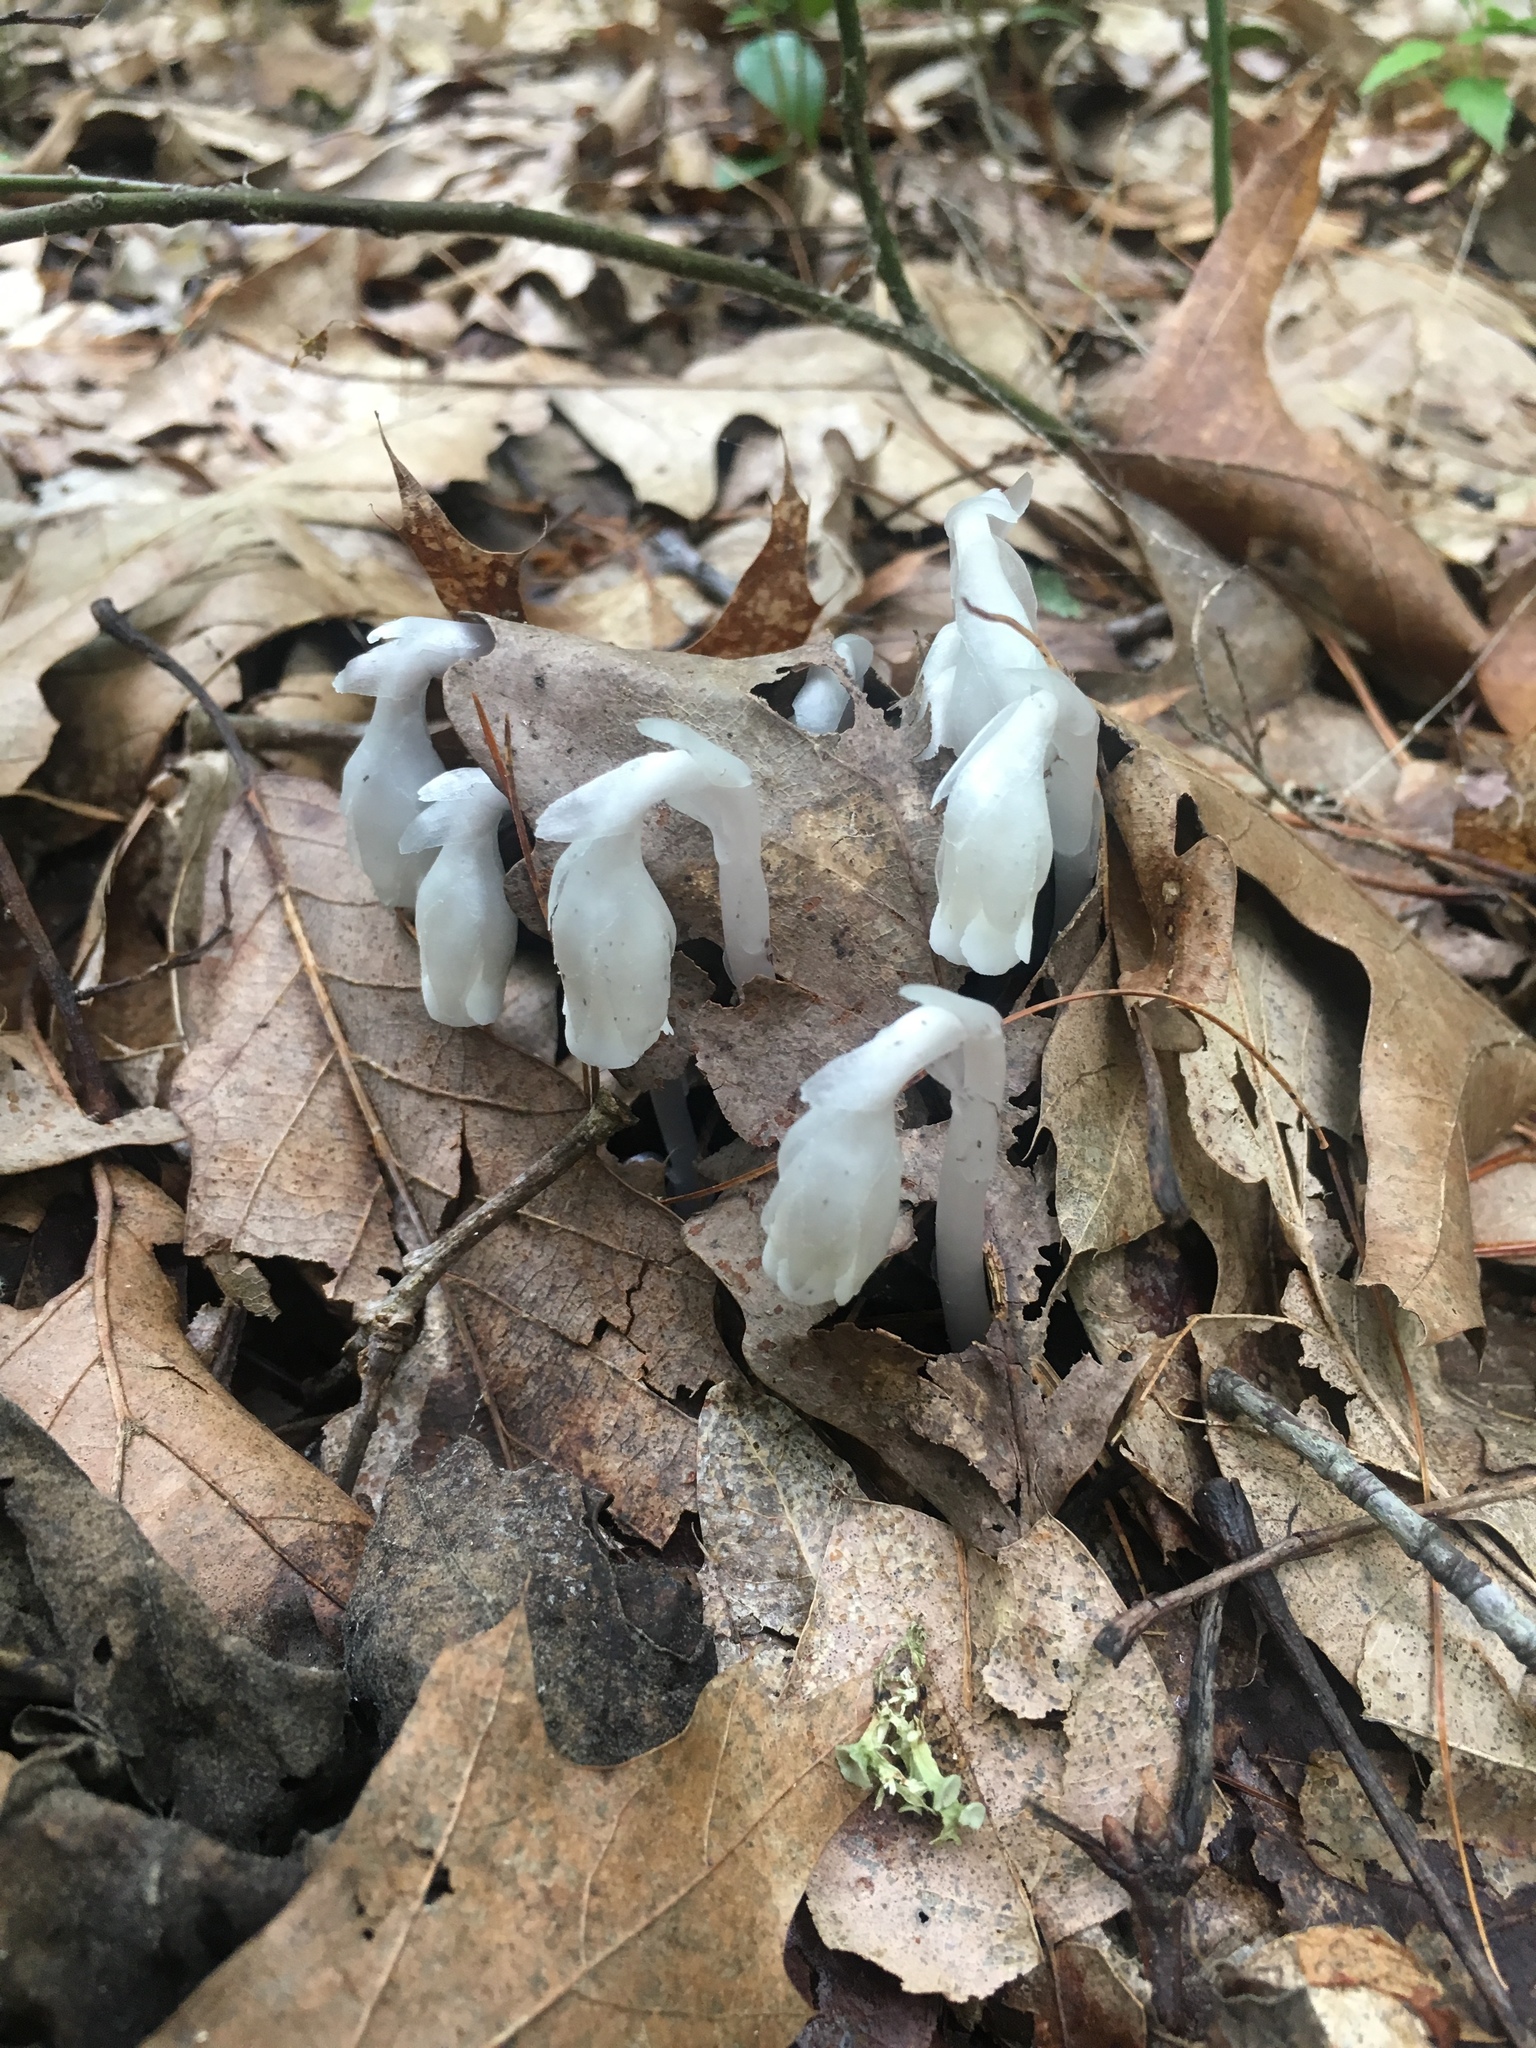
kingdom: Plantae
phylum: Tracheophyta
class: Magnoliopsida
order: Ericales
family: Ericaceae
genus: Monotropa
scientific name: Monotropa uniflora
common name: Convulsion root
